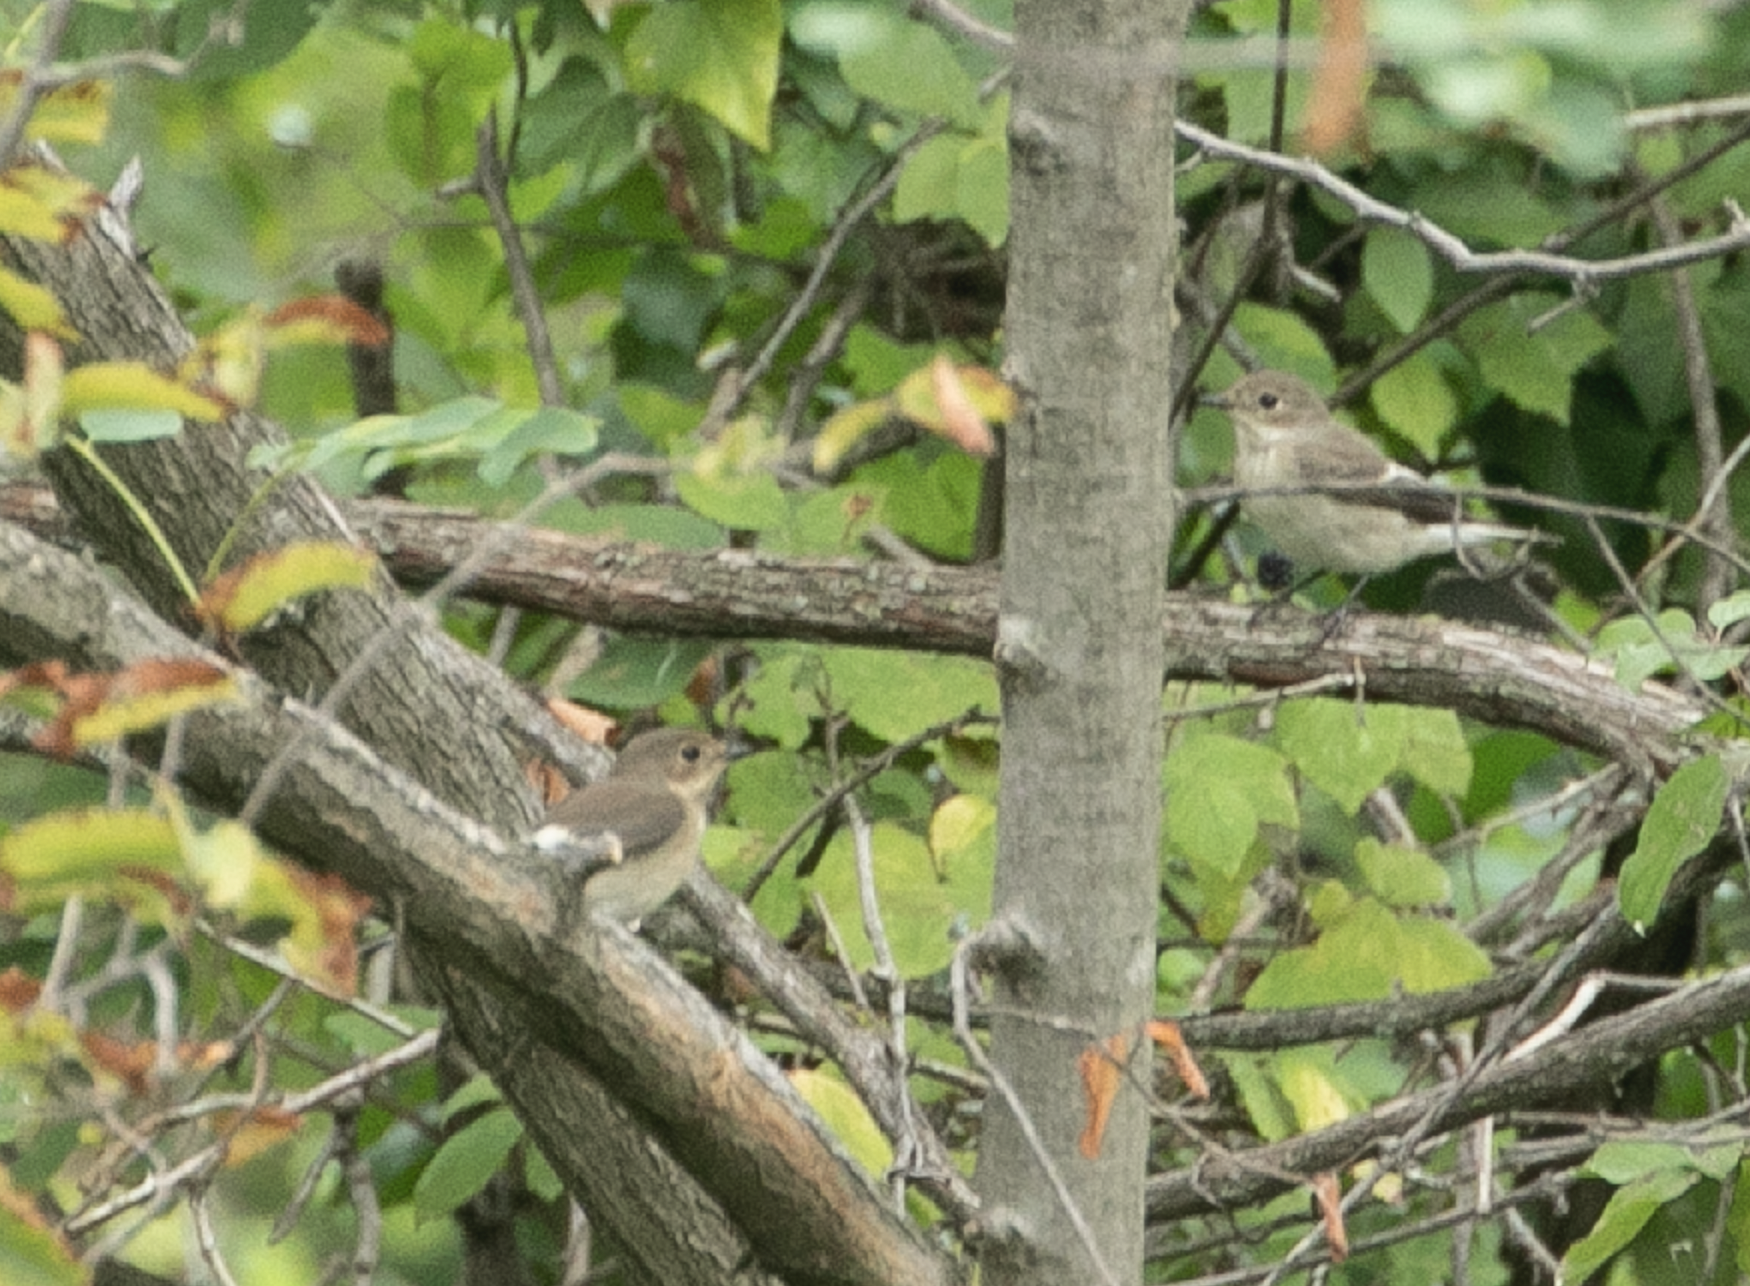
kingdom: Animalia
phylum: Chordata
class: Aves
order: Passeriformes
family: Muscicapidae
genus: Ficedula
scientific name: Ficedula hypoleuca
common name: European pied flycatcher
